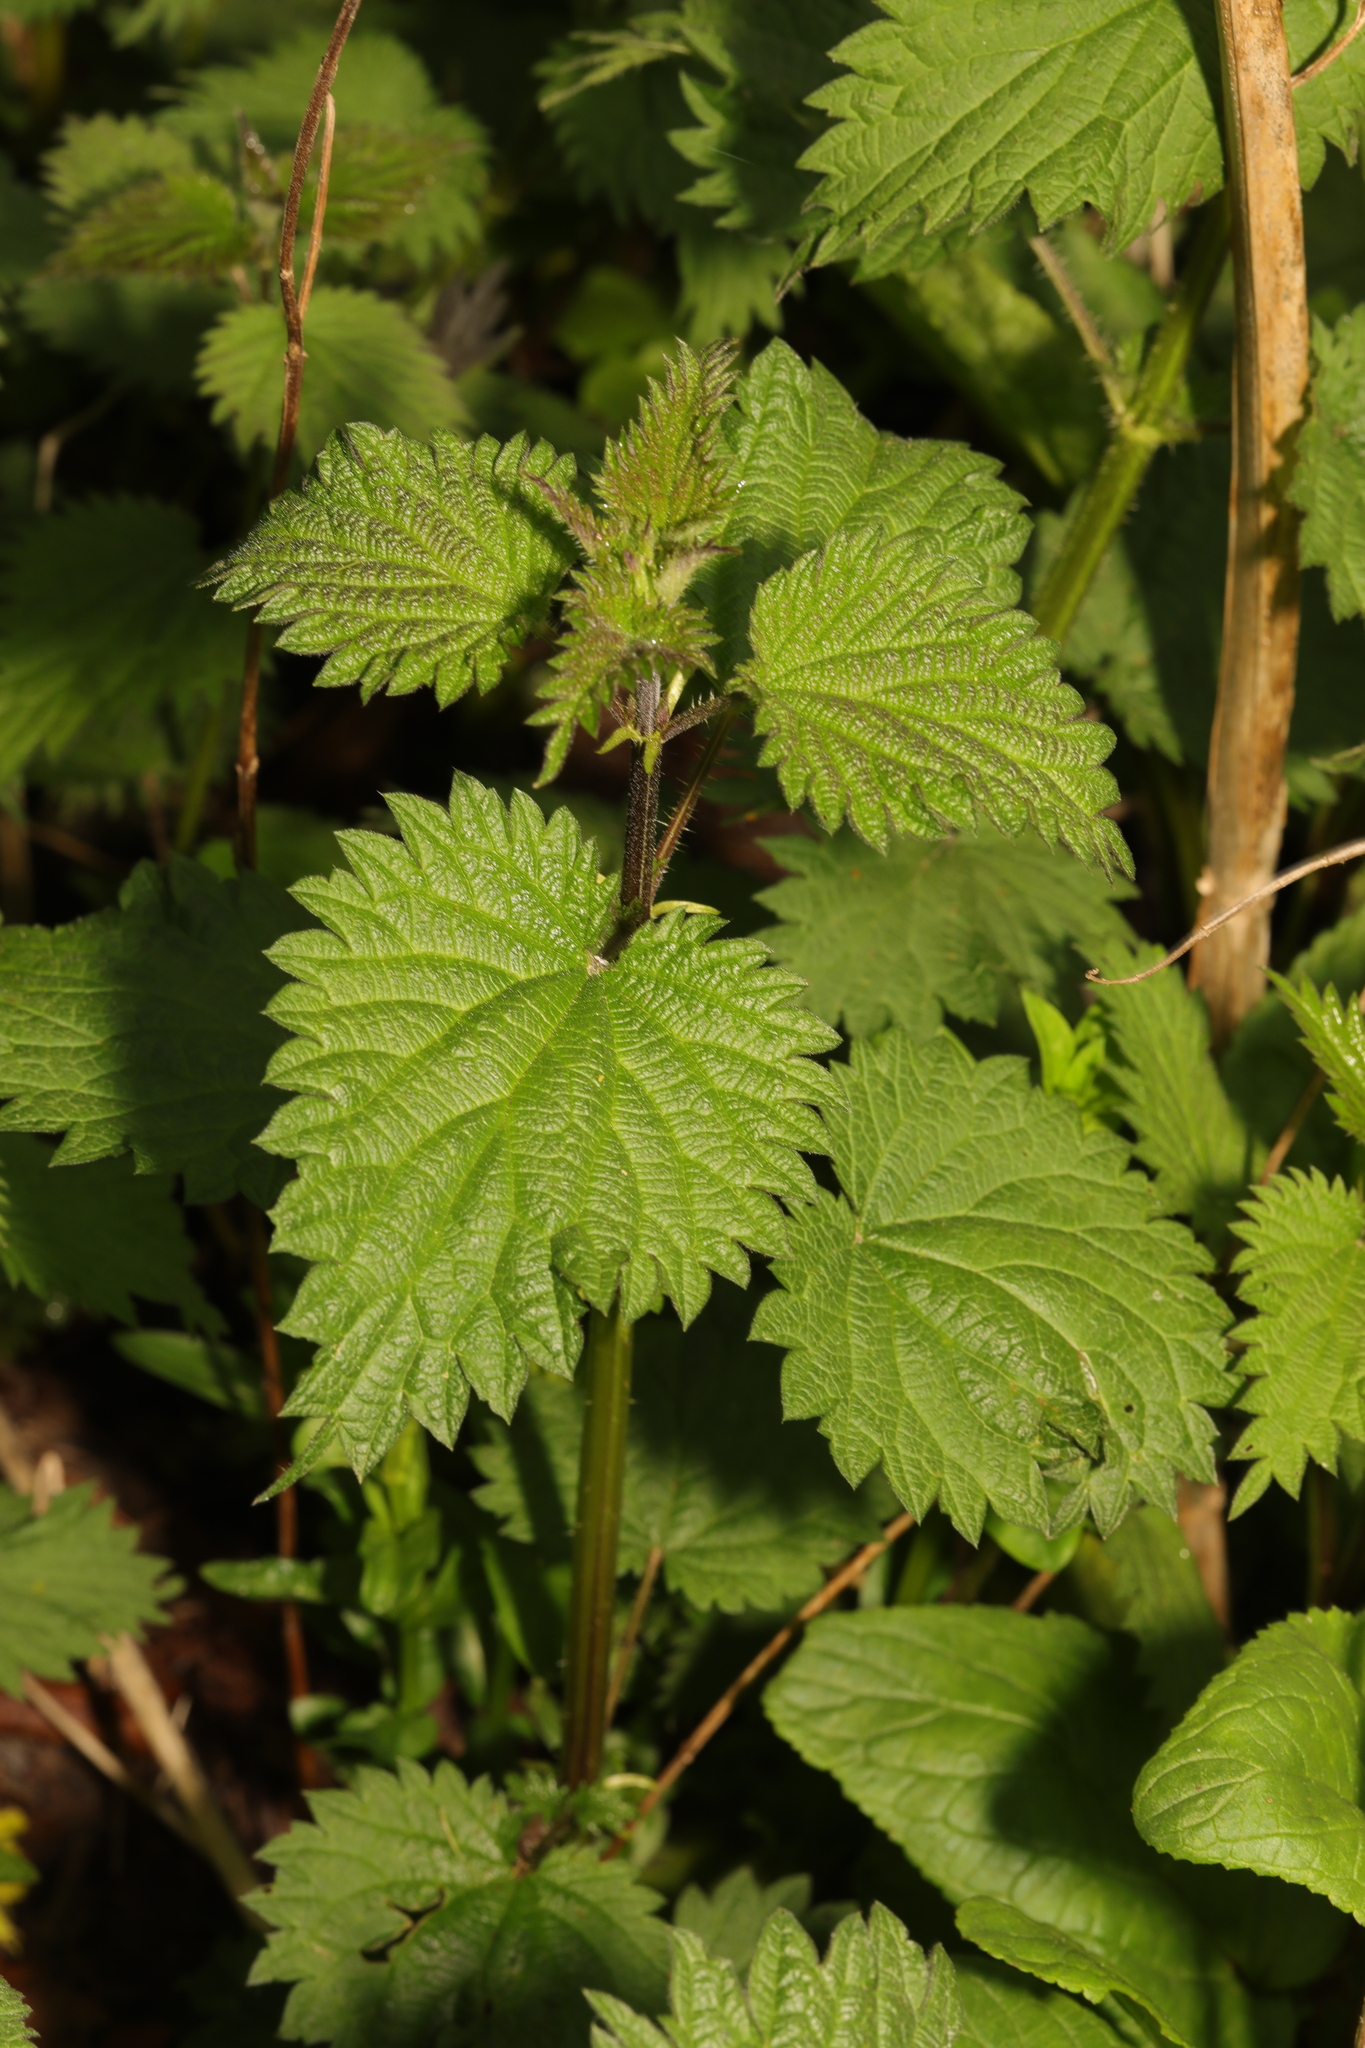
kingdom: Plantae
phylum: Tracheophyta
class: Magnoliopsida
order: Rosales
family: Urticaceae
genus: Urtica
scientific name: Urtica dioica
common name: Common nettle
